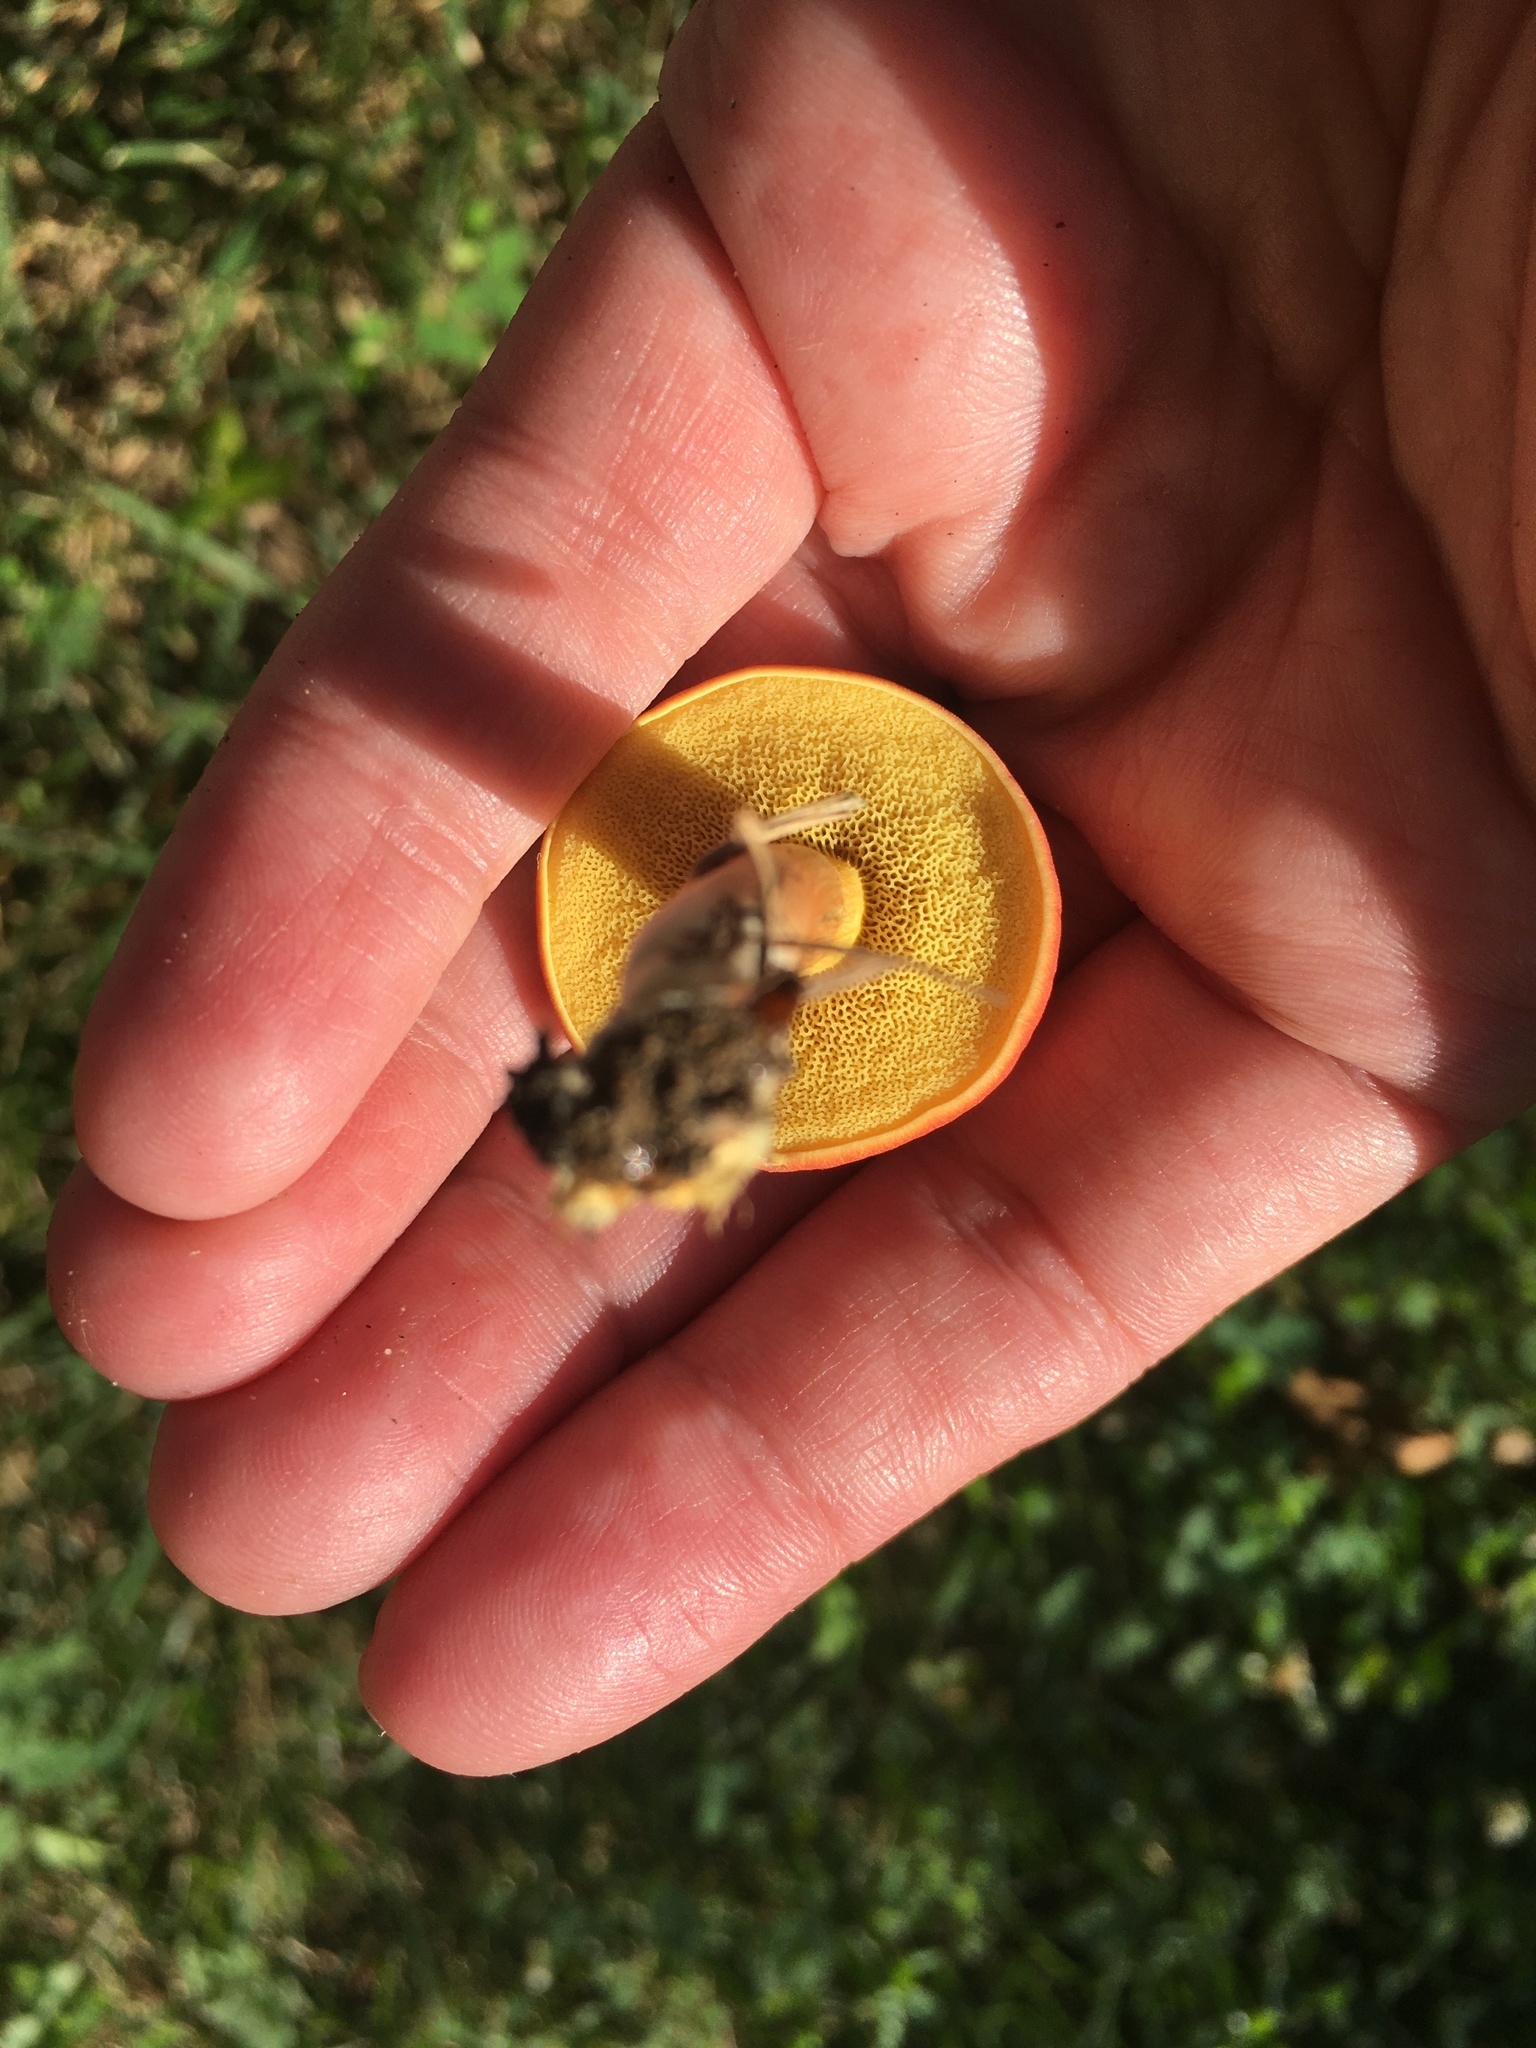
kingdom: Fungi
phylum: Basidiomycota
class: Agaricomycetes
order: Boletales
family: Boletaceae
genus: Hortiboletus
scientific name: Hortiboletus campestris
